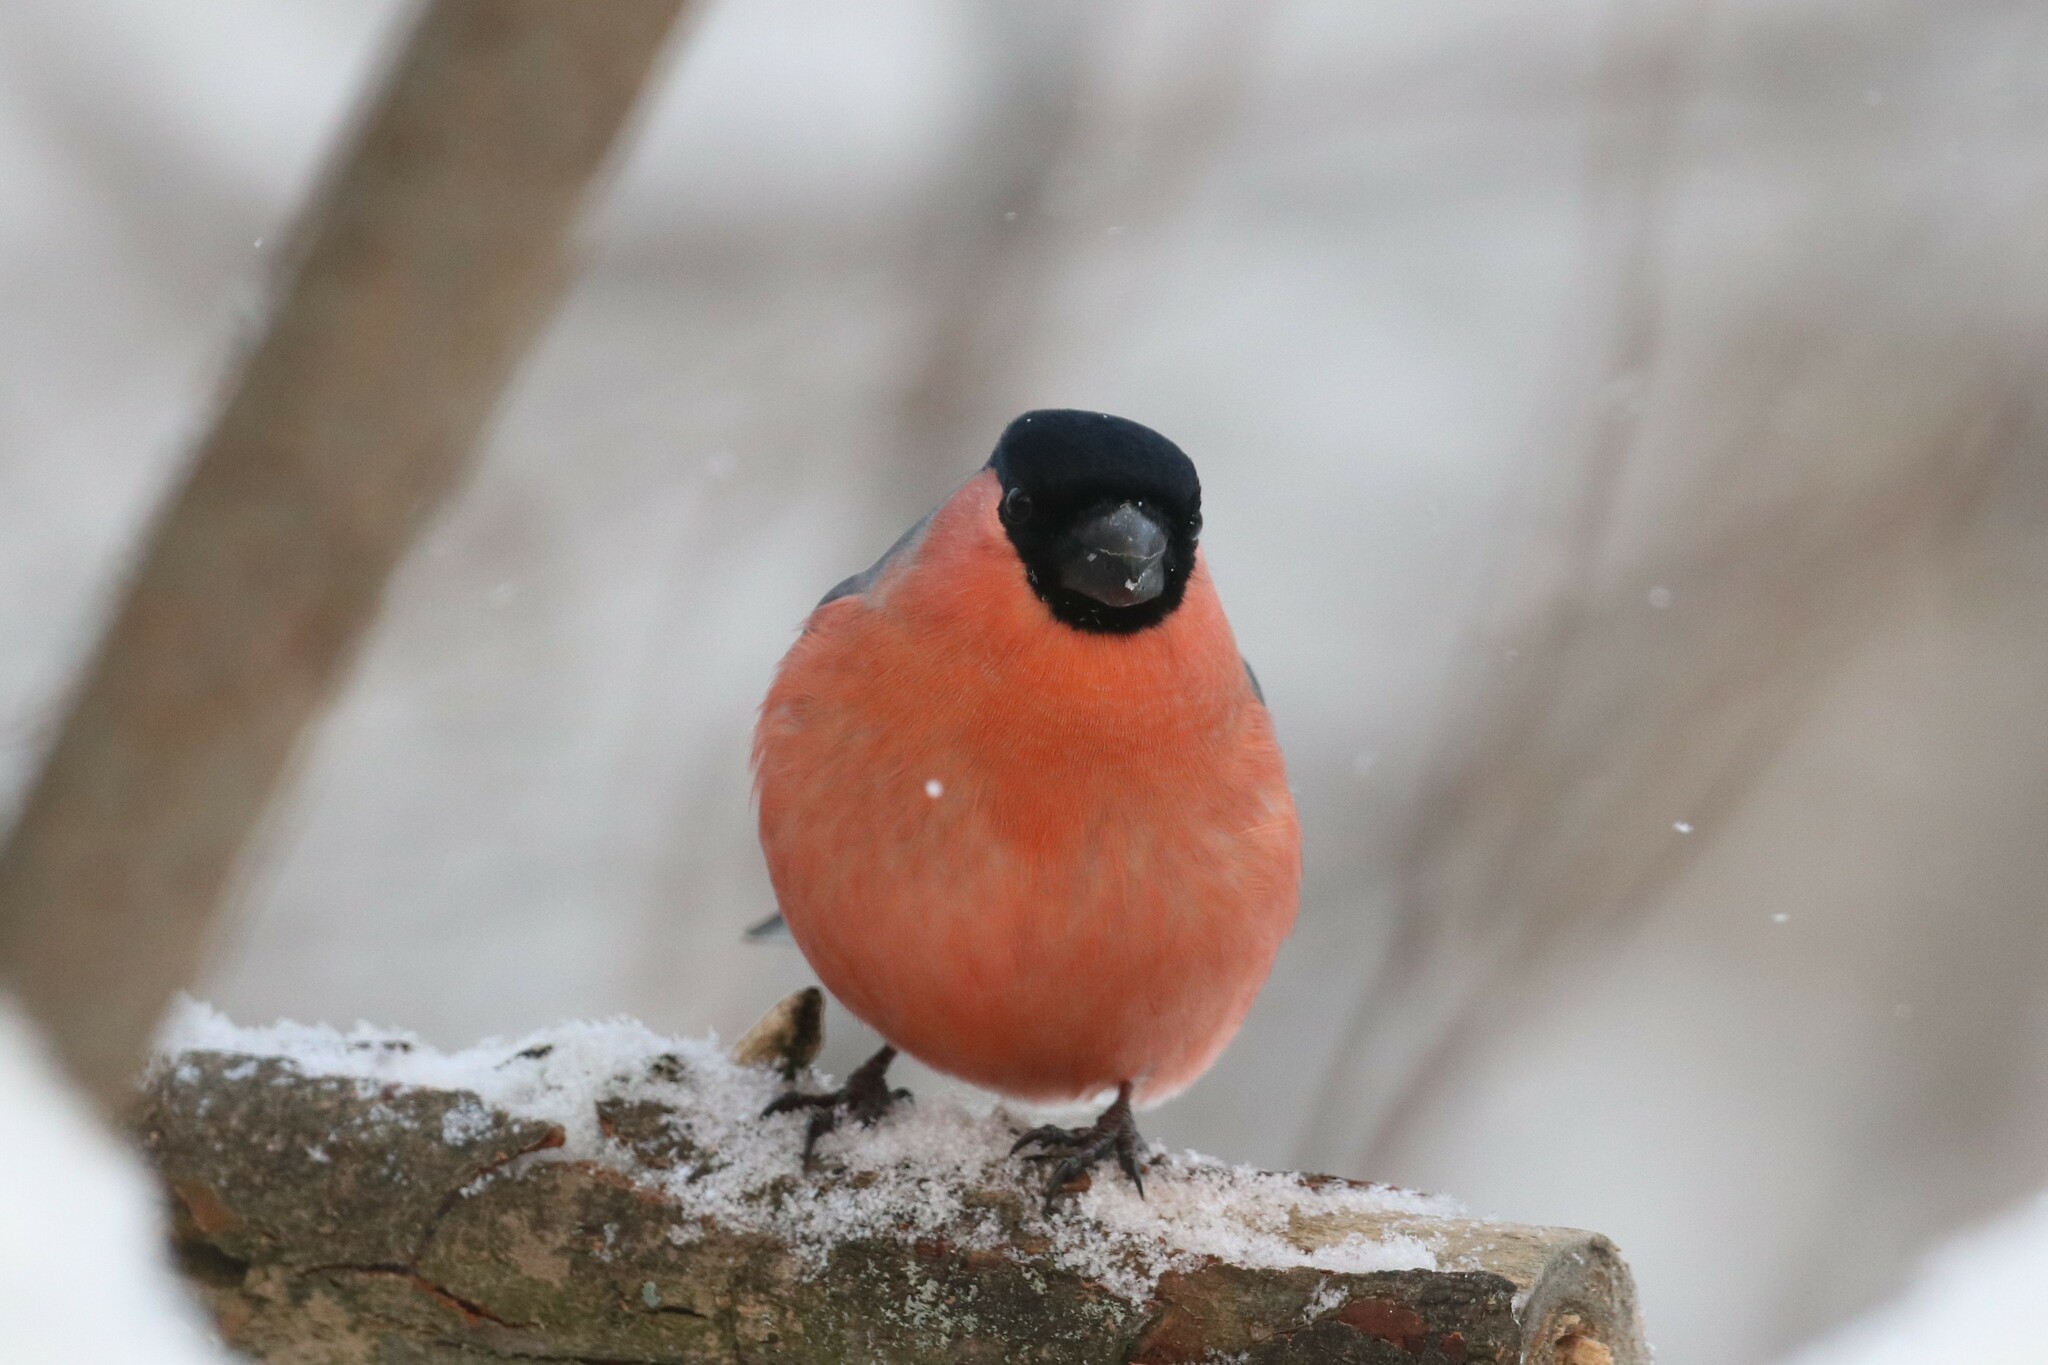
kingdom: Animalia
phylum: Chordata
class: Aves
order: Passeriformes
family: Fringillidae
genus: Pyrrhula
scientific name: Pyrrhula pyrrhula
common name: Eurasian bullfinch
